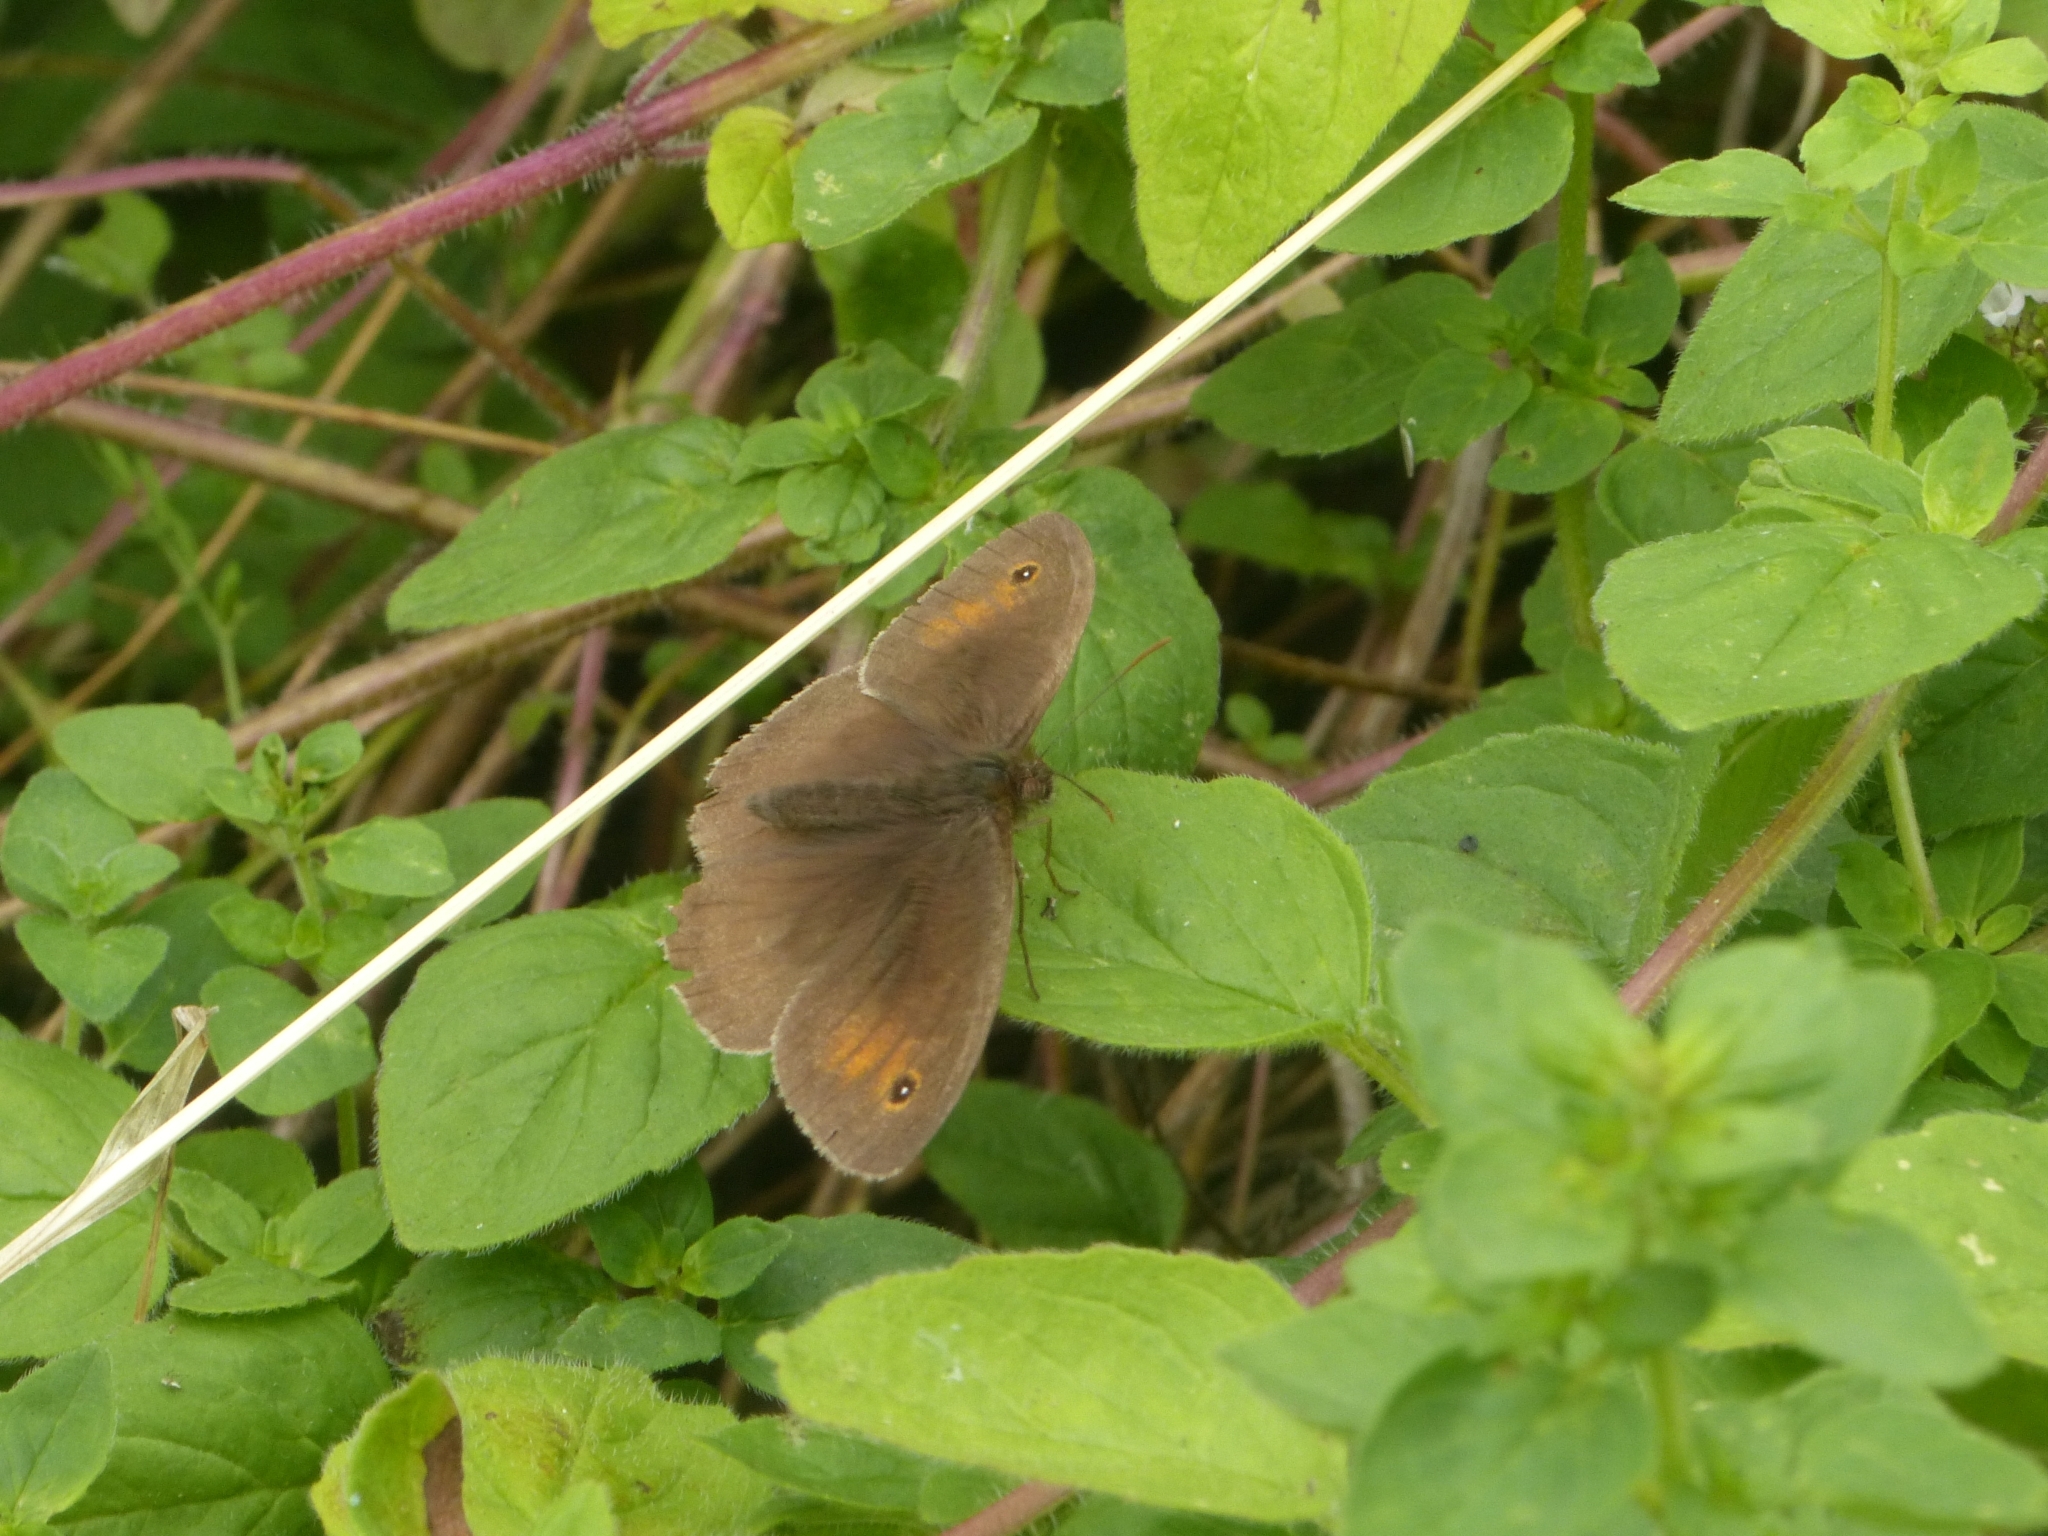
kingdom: Animalia
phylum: Arthropoda
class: Insecta
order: Lepidoptera
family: Nymphalidae
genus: Maniola
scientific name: Maniola jurtina
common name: Meadow brown
